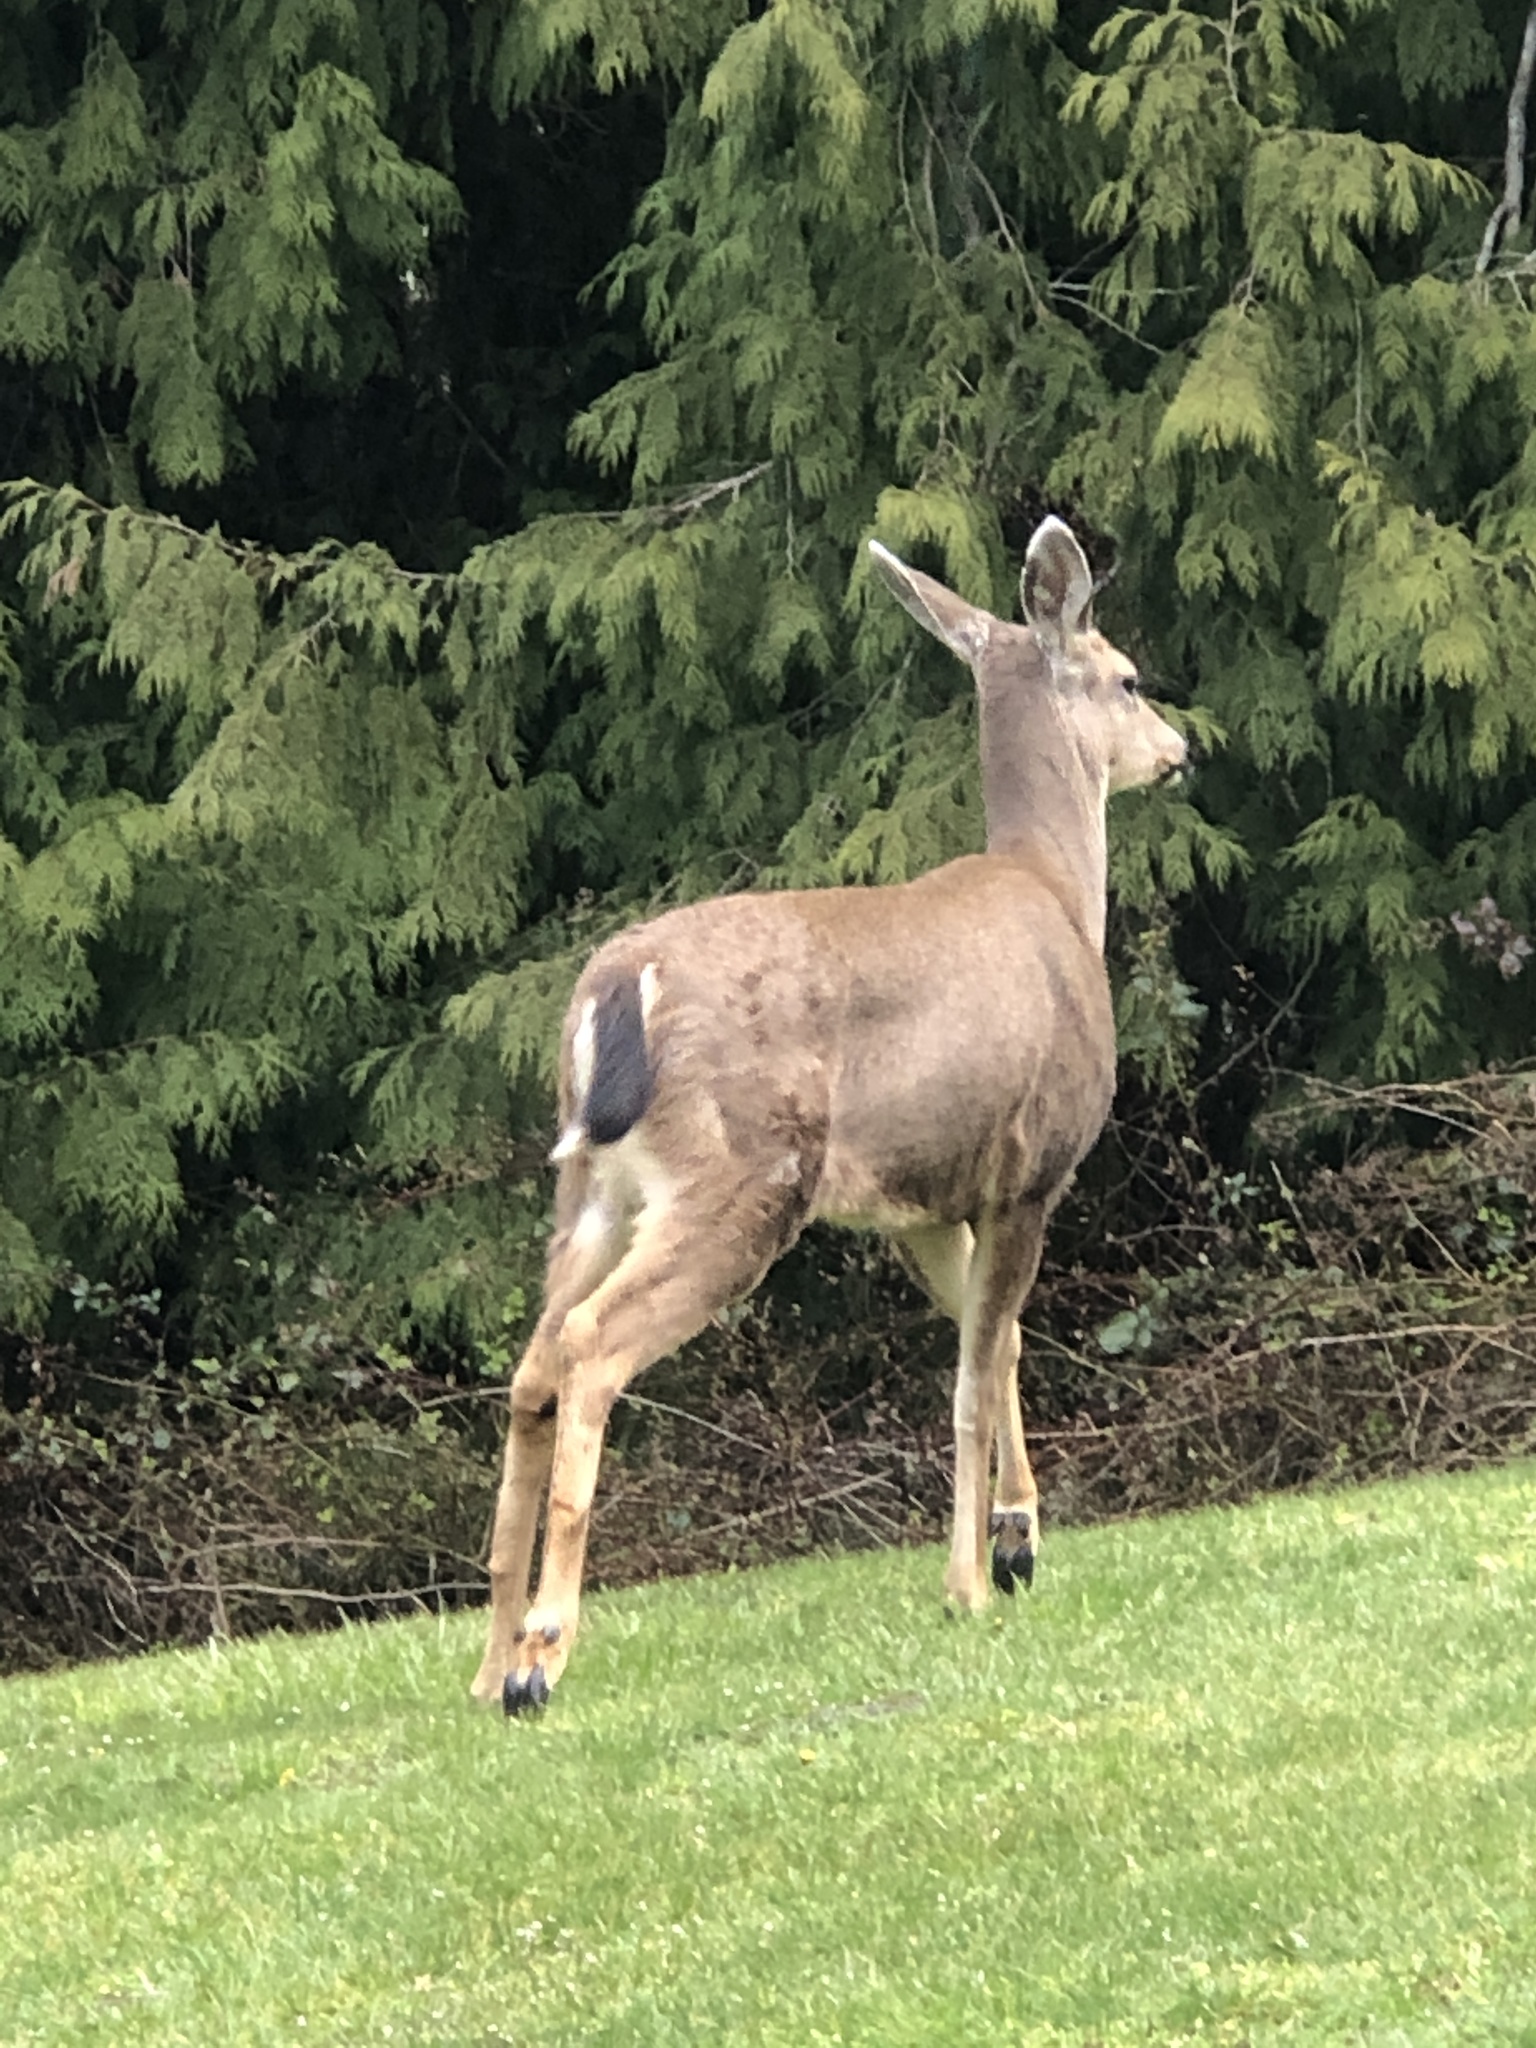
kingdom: Animalia
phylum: Chordata
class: Mammalia
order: Artiodactyla
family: Cervidae
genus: Odocoileus
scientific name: Odocoileus hemionus
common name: Mule deer
